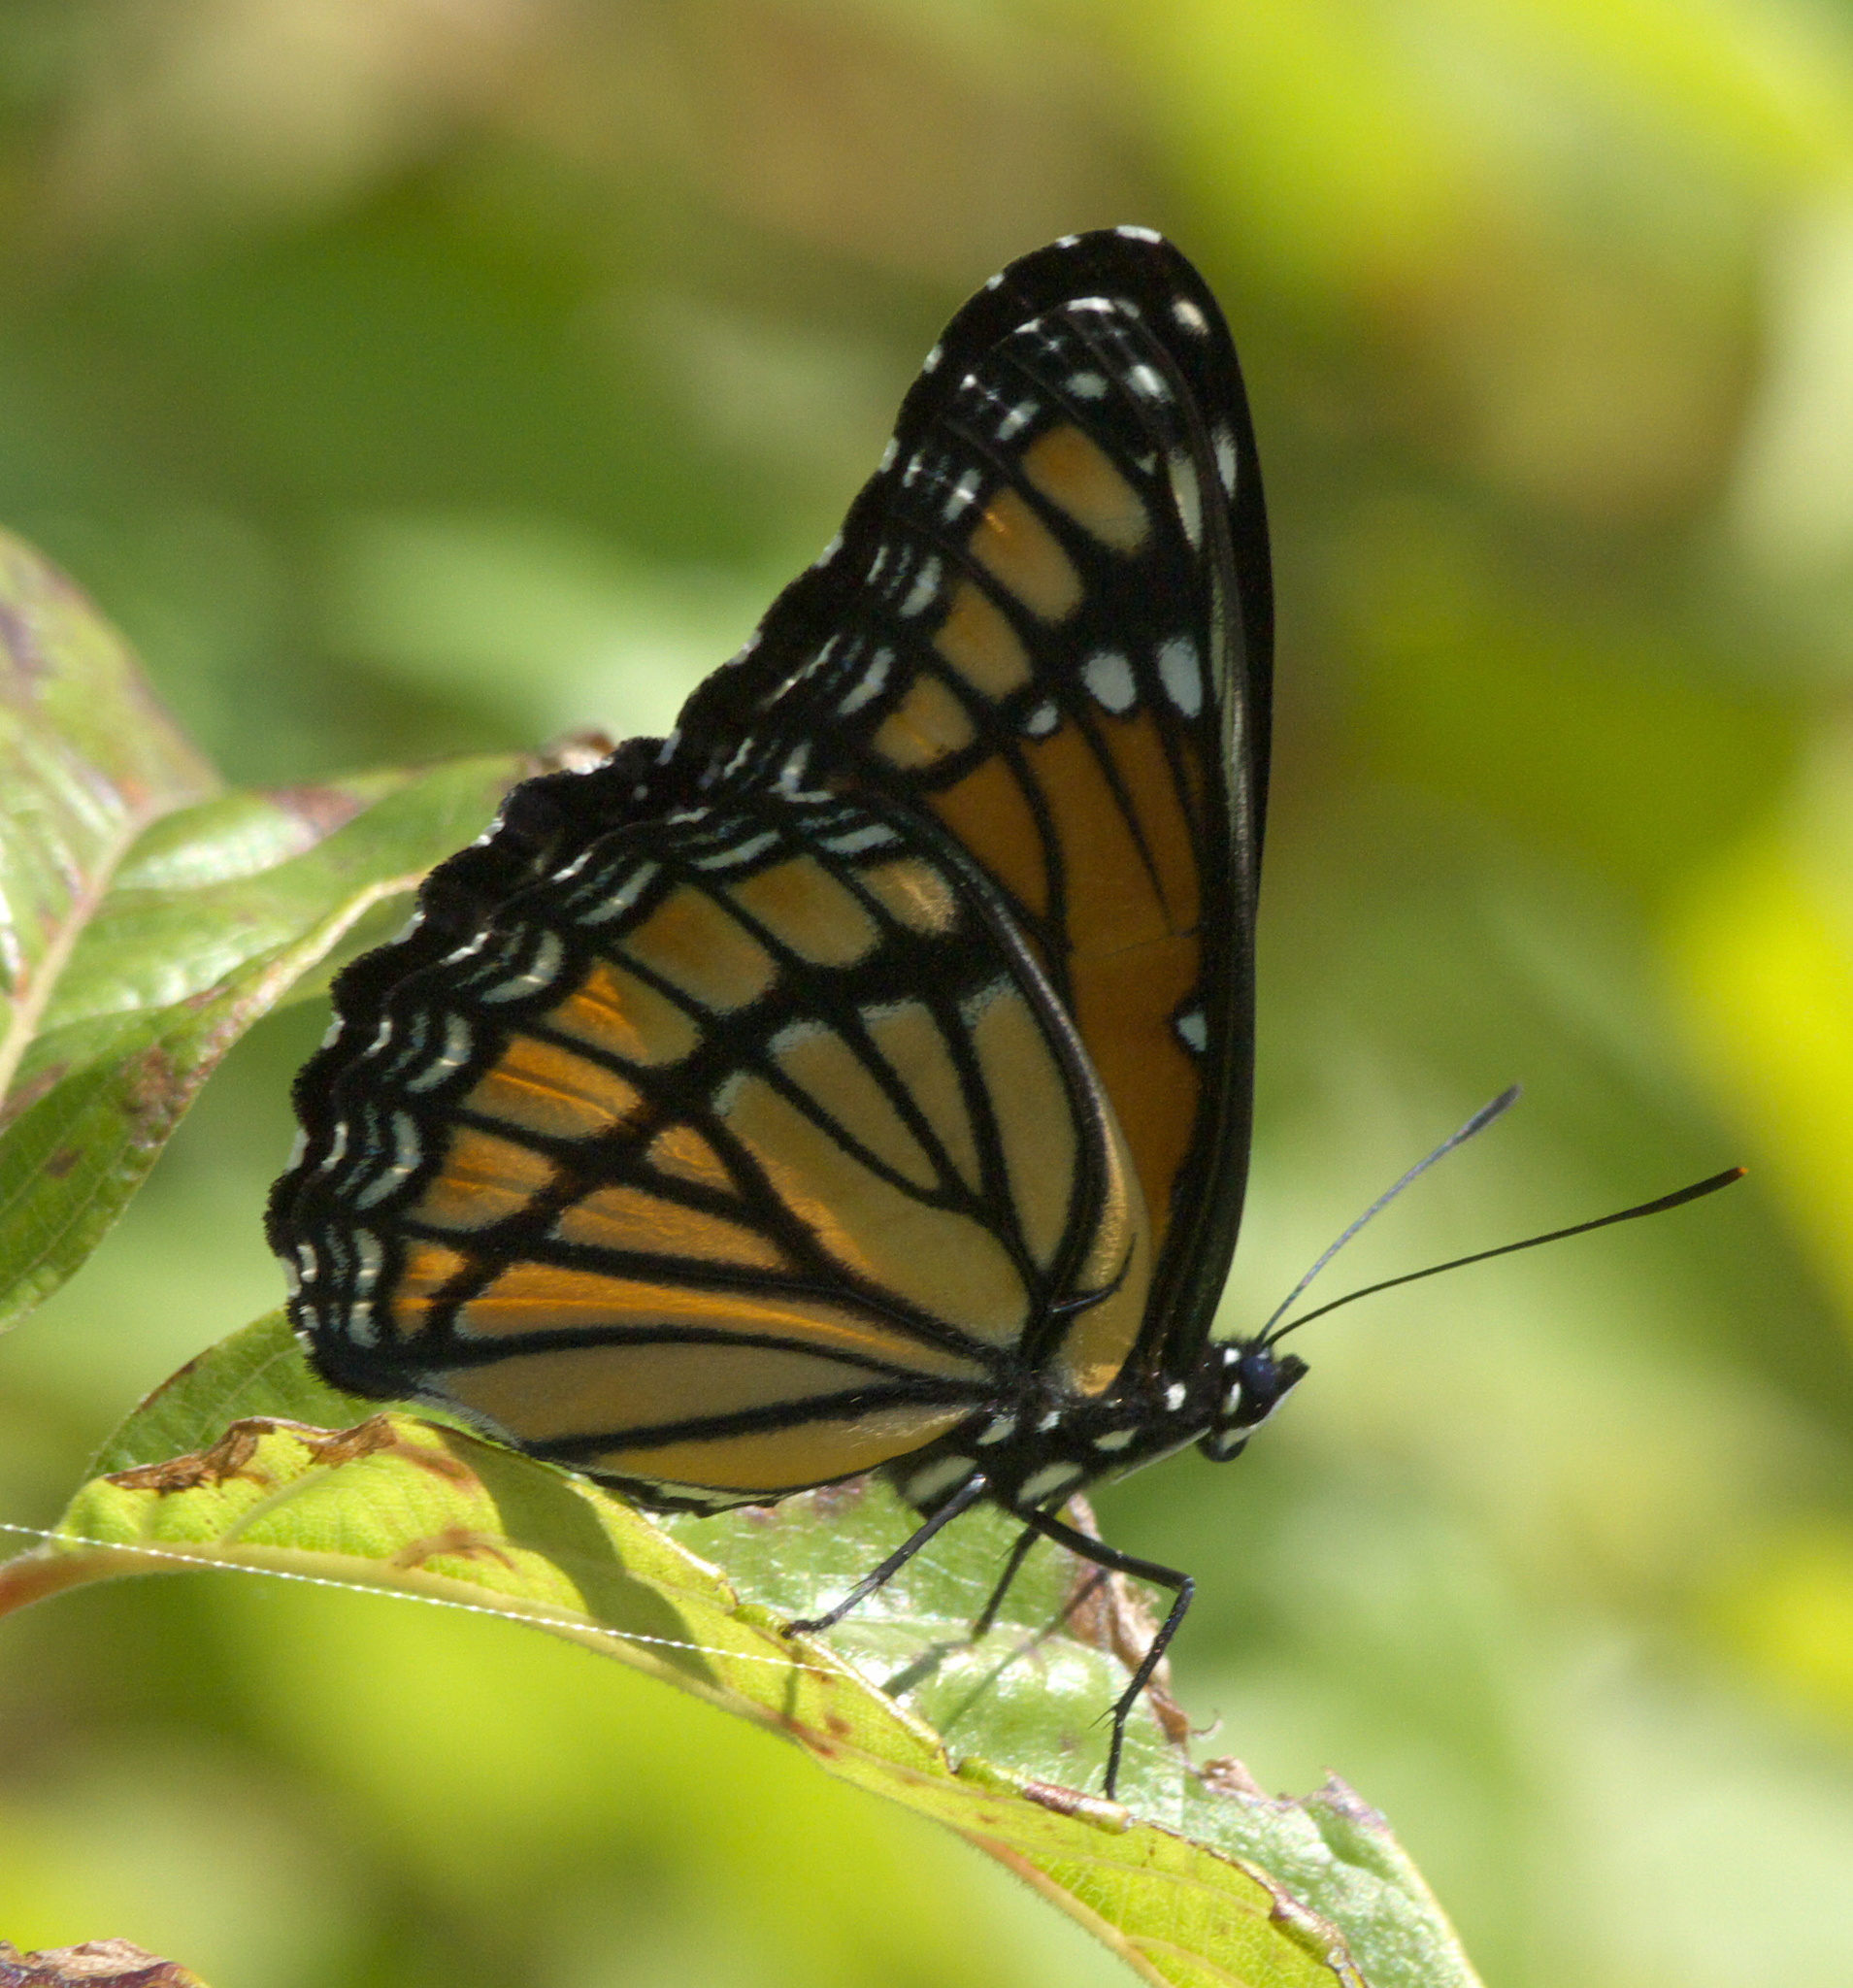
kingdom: Animalia
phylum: Arthropoda
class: Insecta
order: Lepidoptera
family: Nymphalidae
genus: Limenitis
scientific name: Limenitis archippus
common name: Viceroy
